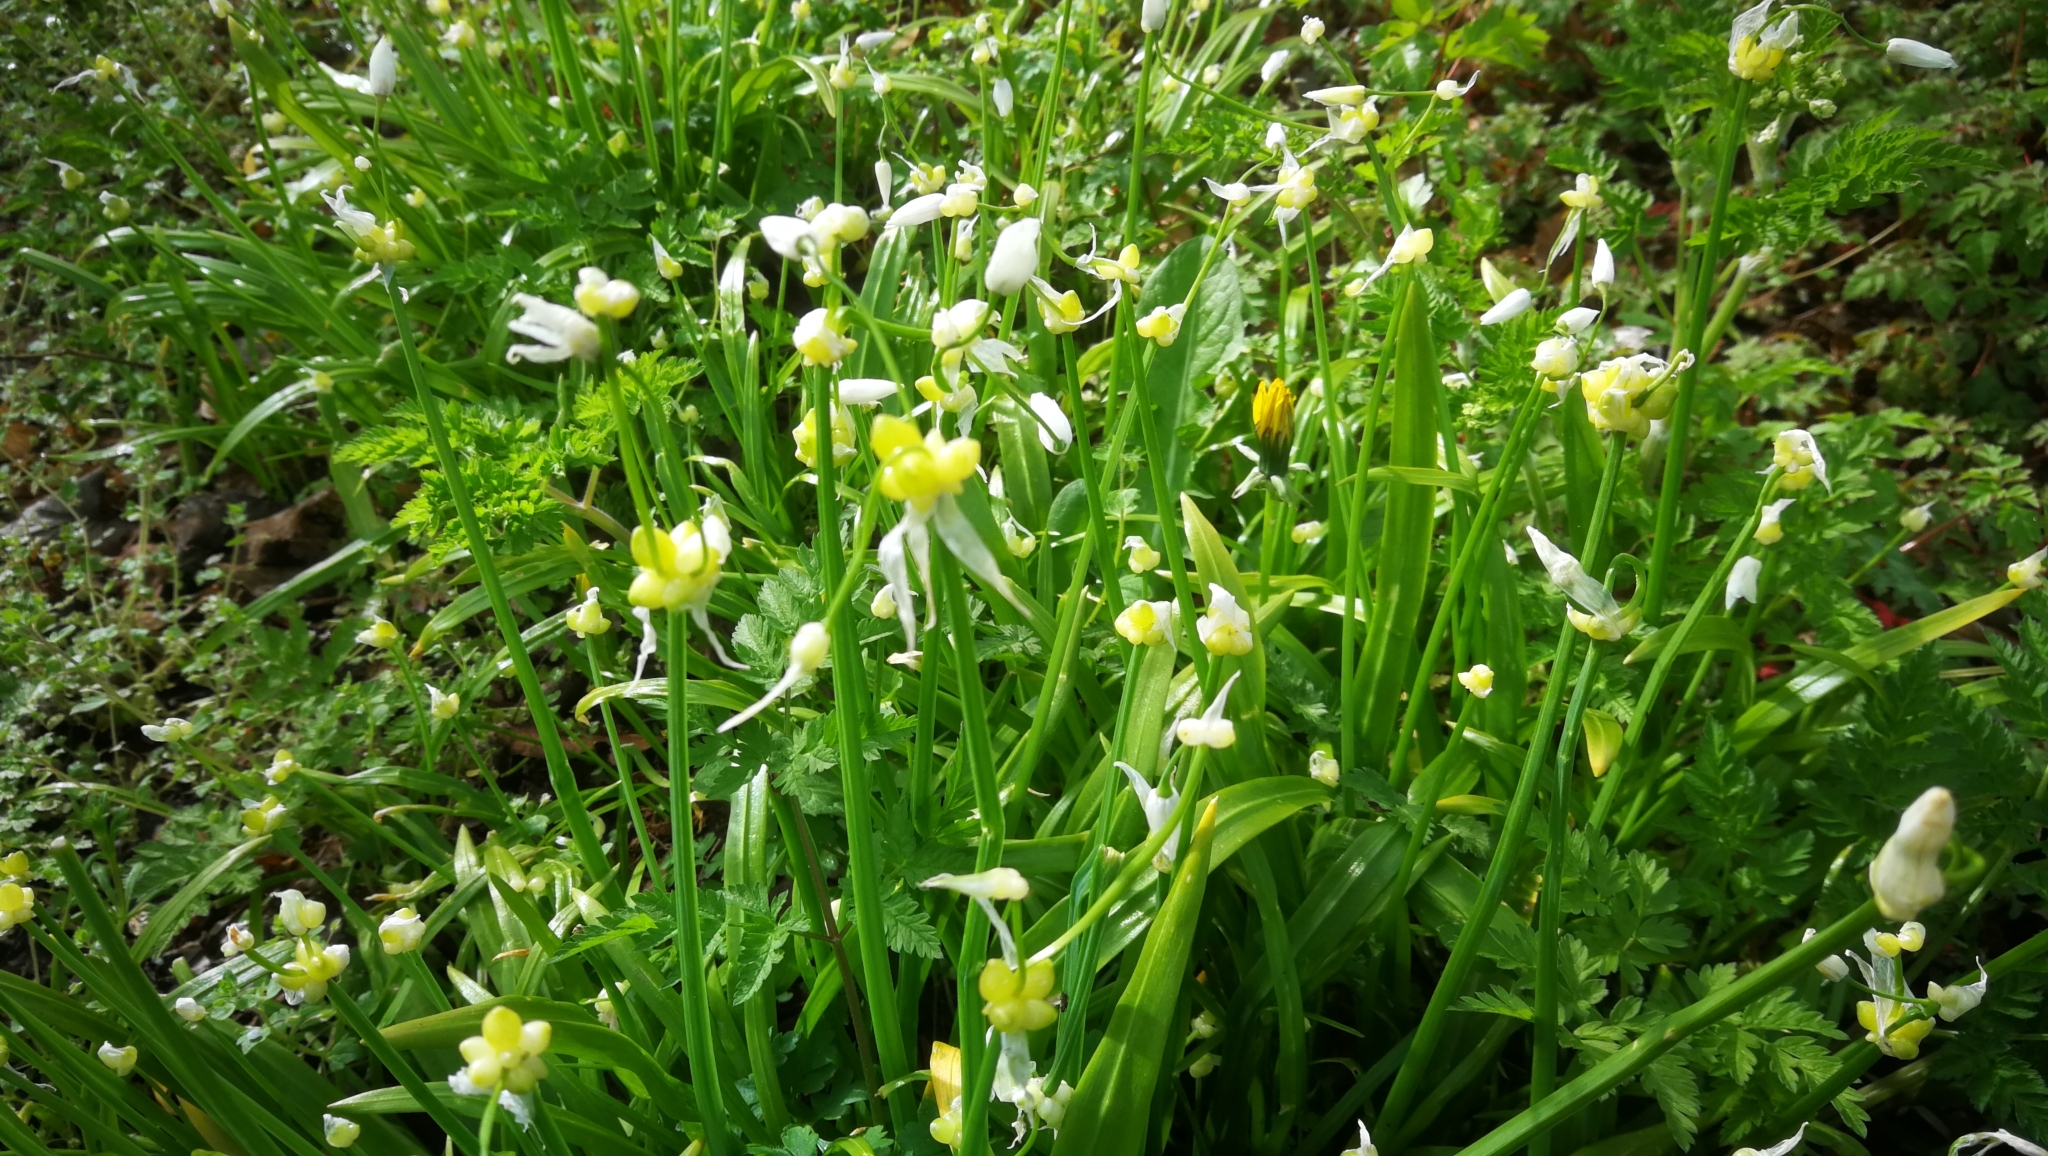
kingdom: Plantae
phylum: Tracheophyta
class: Liliopsida
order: Asparagales
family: Amaryllidaceae
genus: Allium
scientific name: Allium paradoxum
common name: Few-flowered garlic
